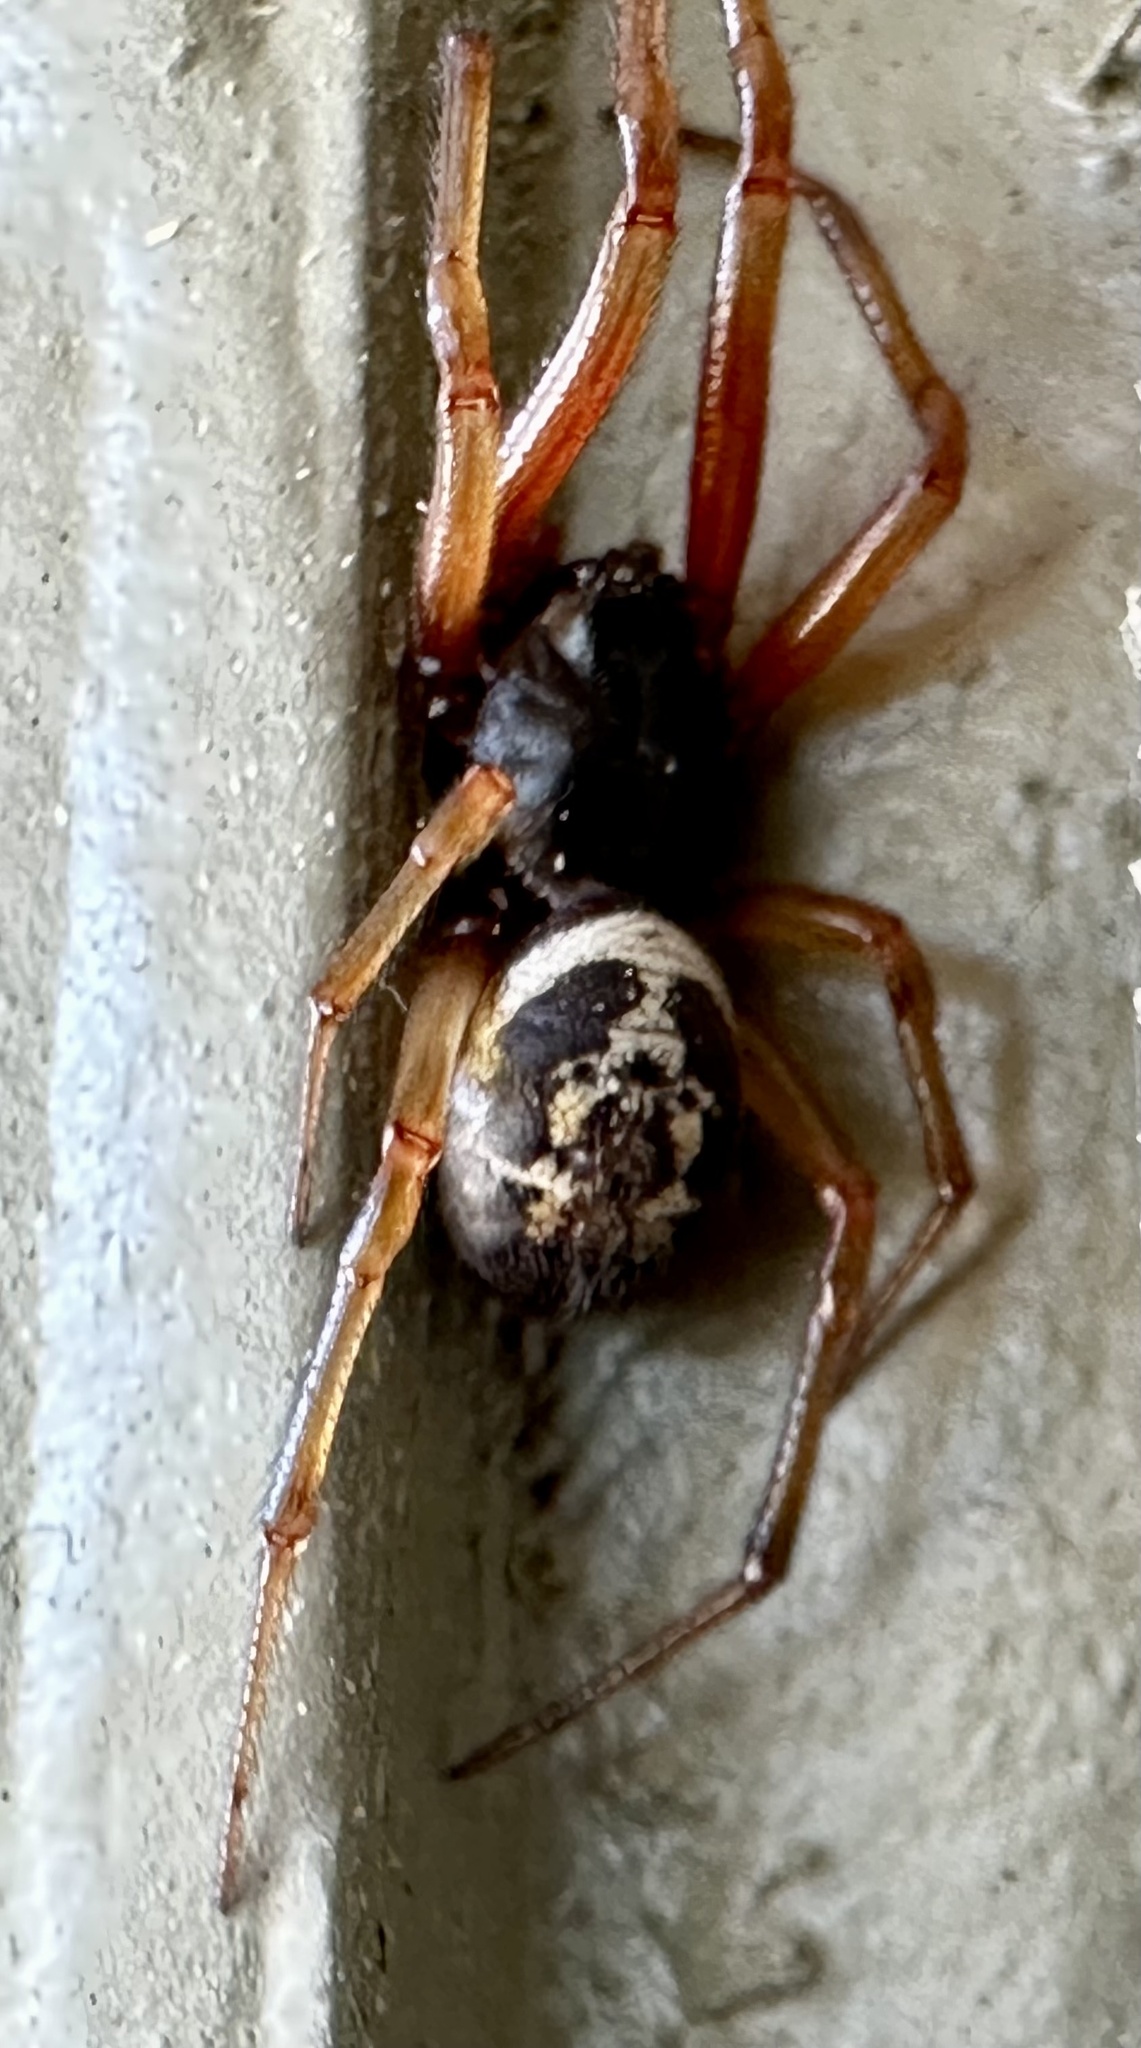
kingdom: Animalia
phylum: Arthropoda
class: Arachnida
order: Araneae
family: Theridiidae
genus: Steatoda
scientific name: Steatoda nobilis
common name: Cobweb weaver
